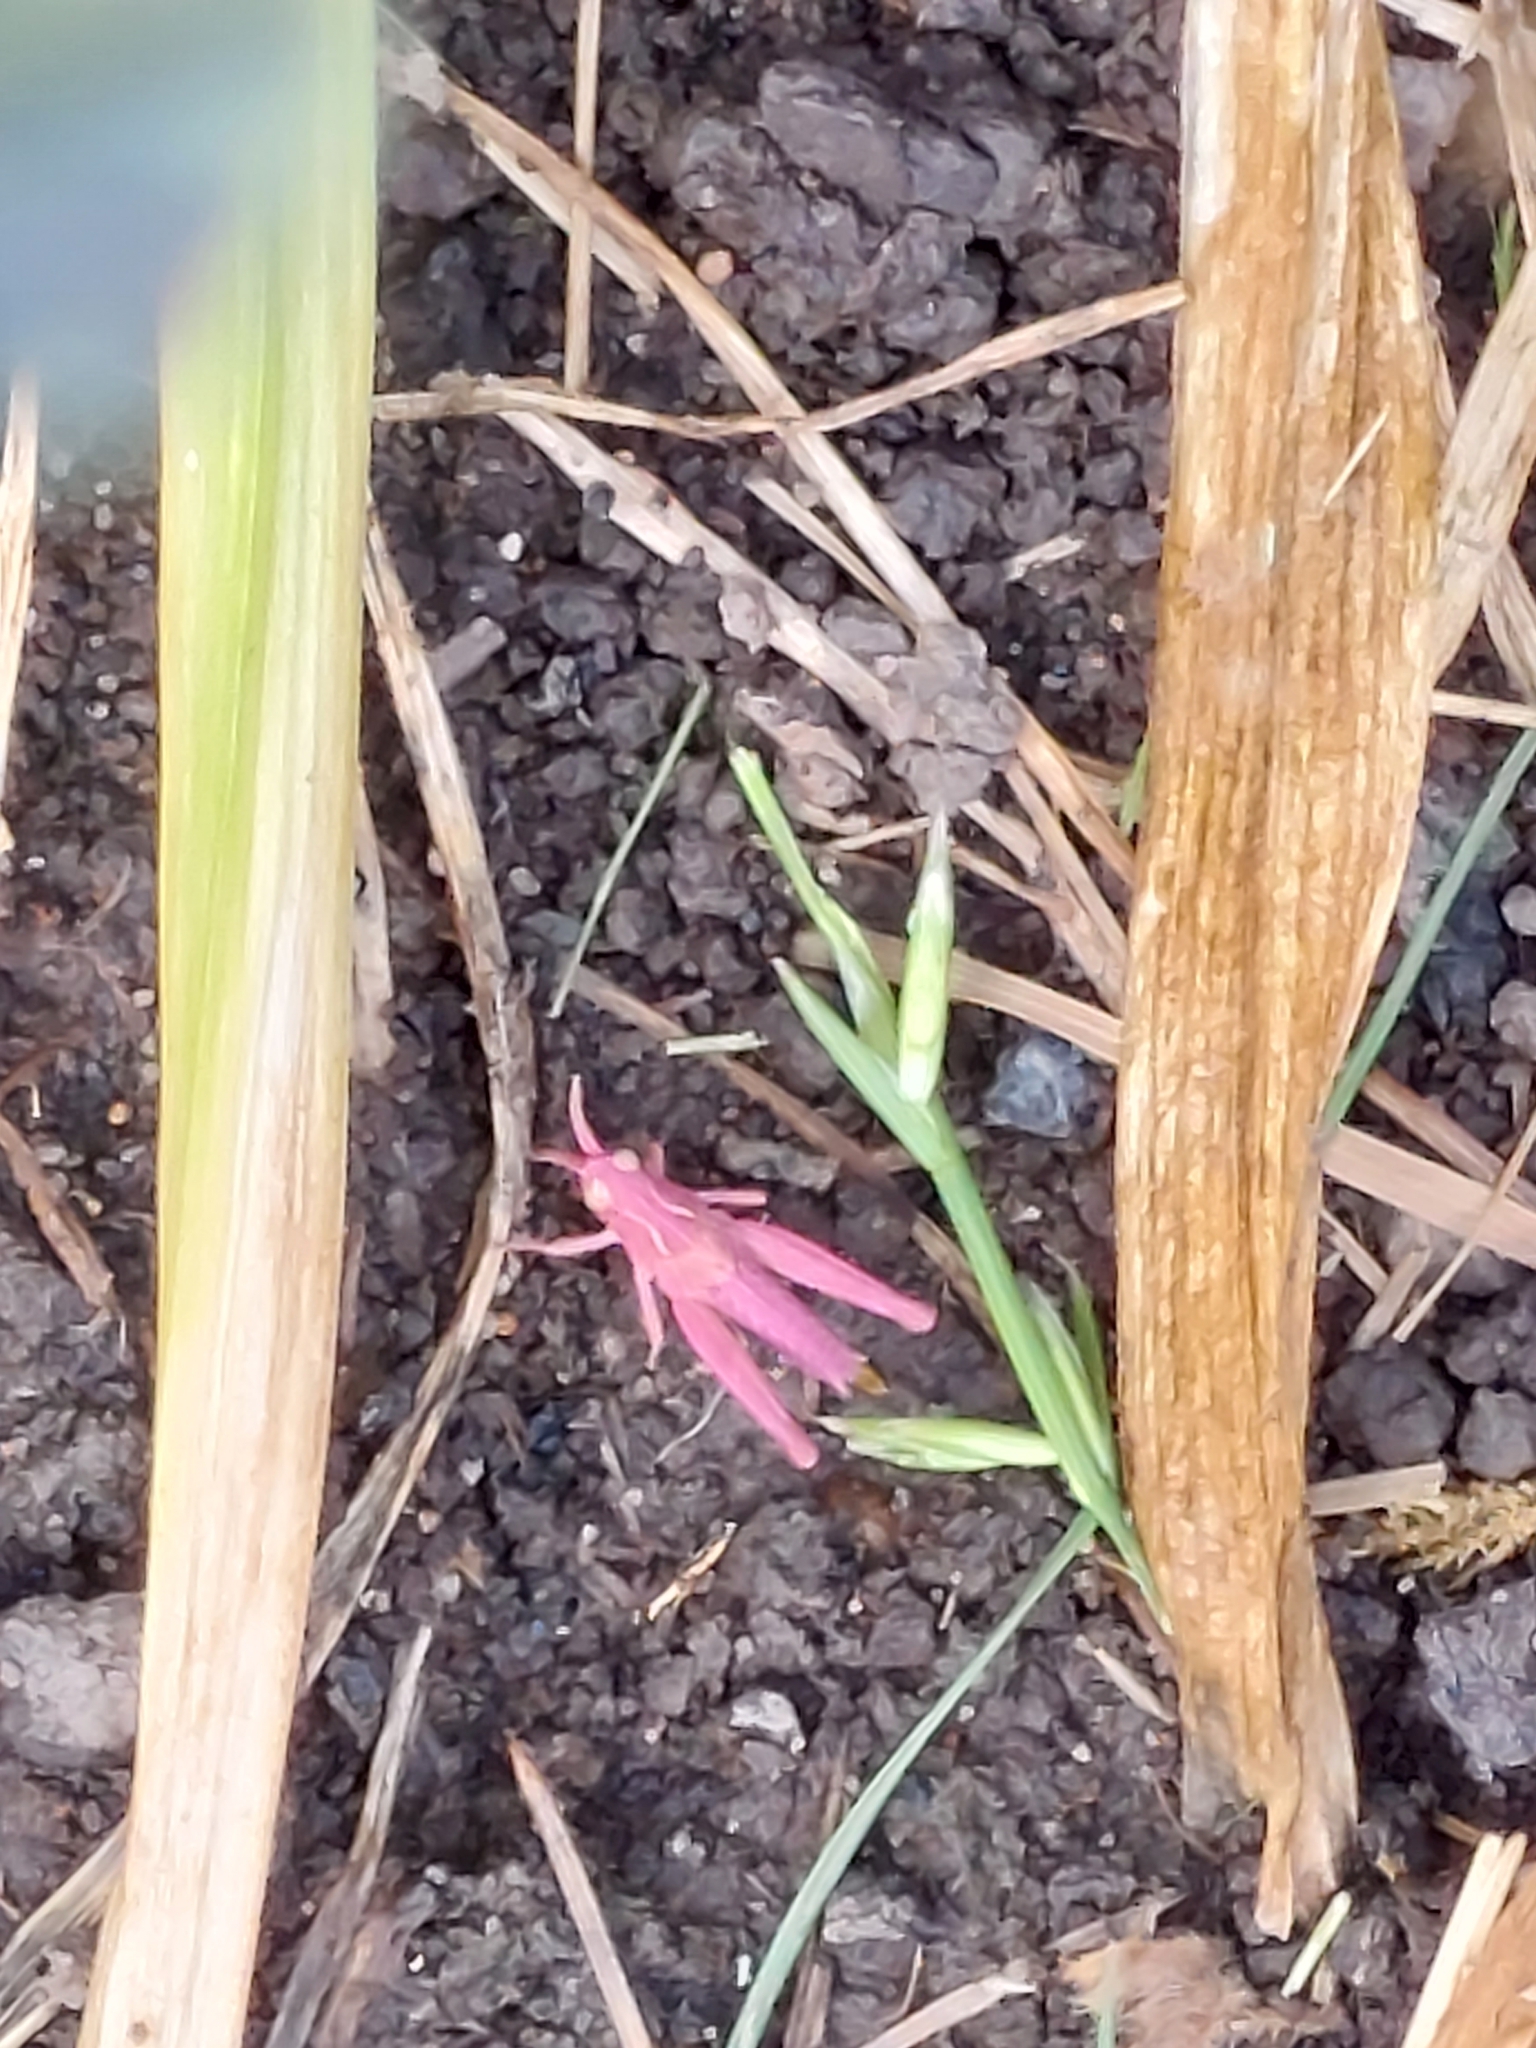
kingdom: Animalia
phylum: Arthropoda
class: Insecta
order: Orthoptera
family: Acrididae
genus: Chorthippus
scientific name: Chorthippus brunneus
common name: Field grasshopper
